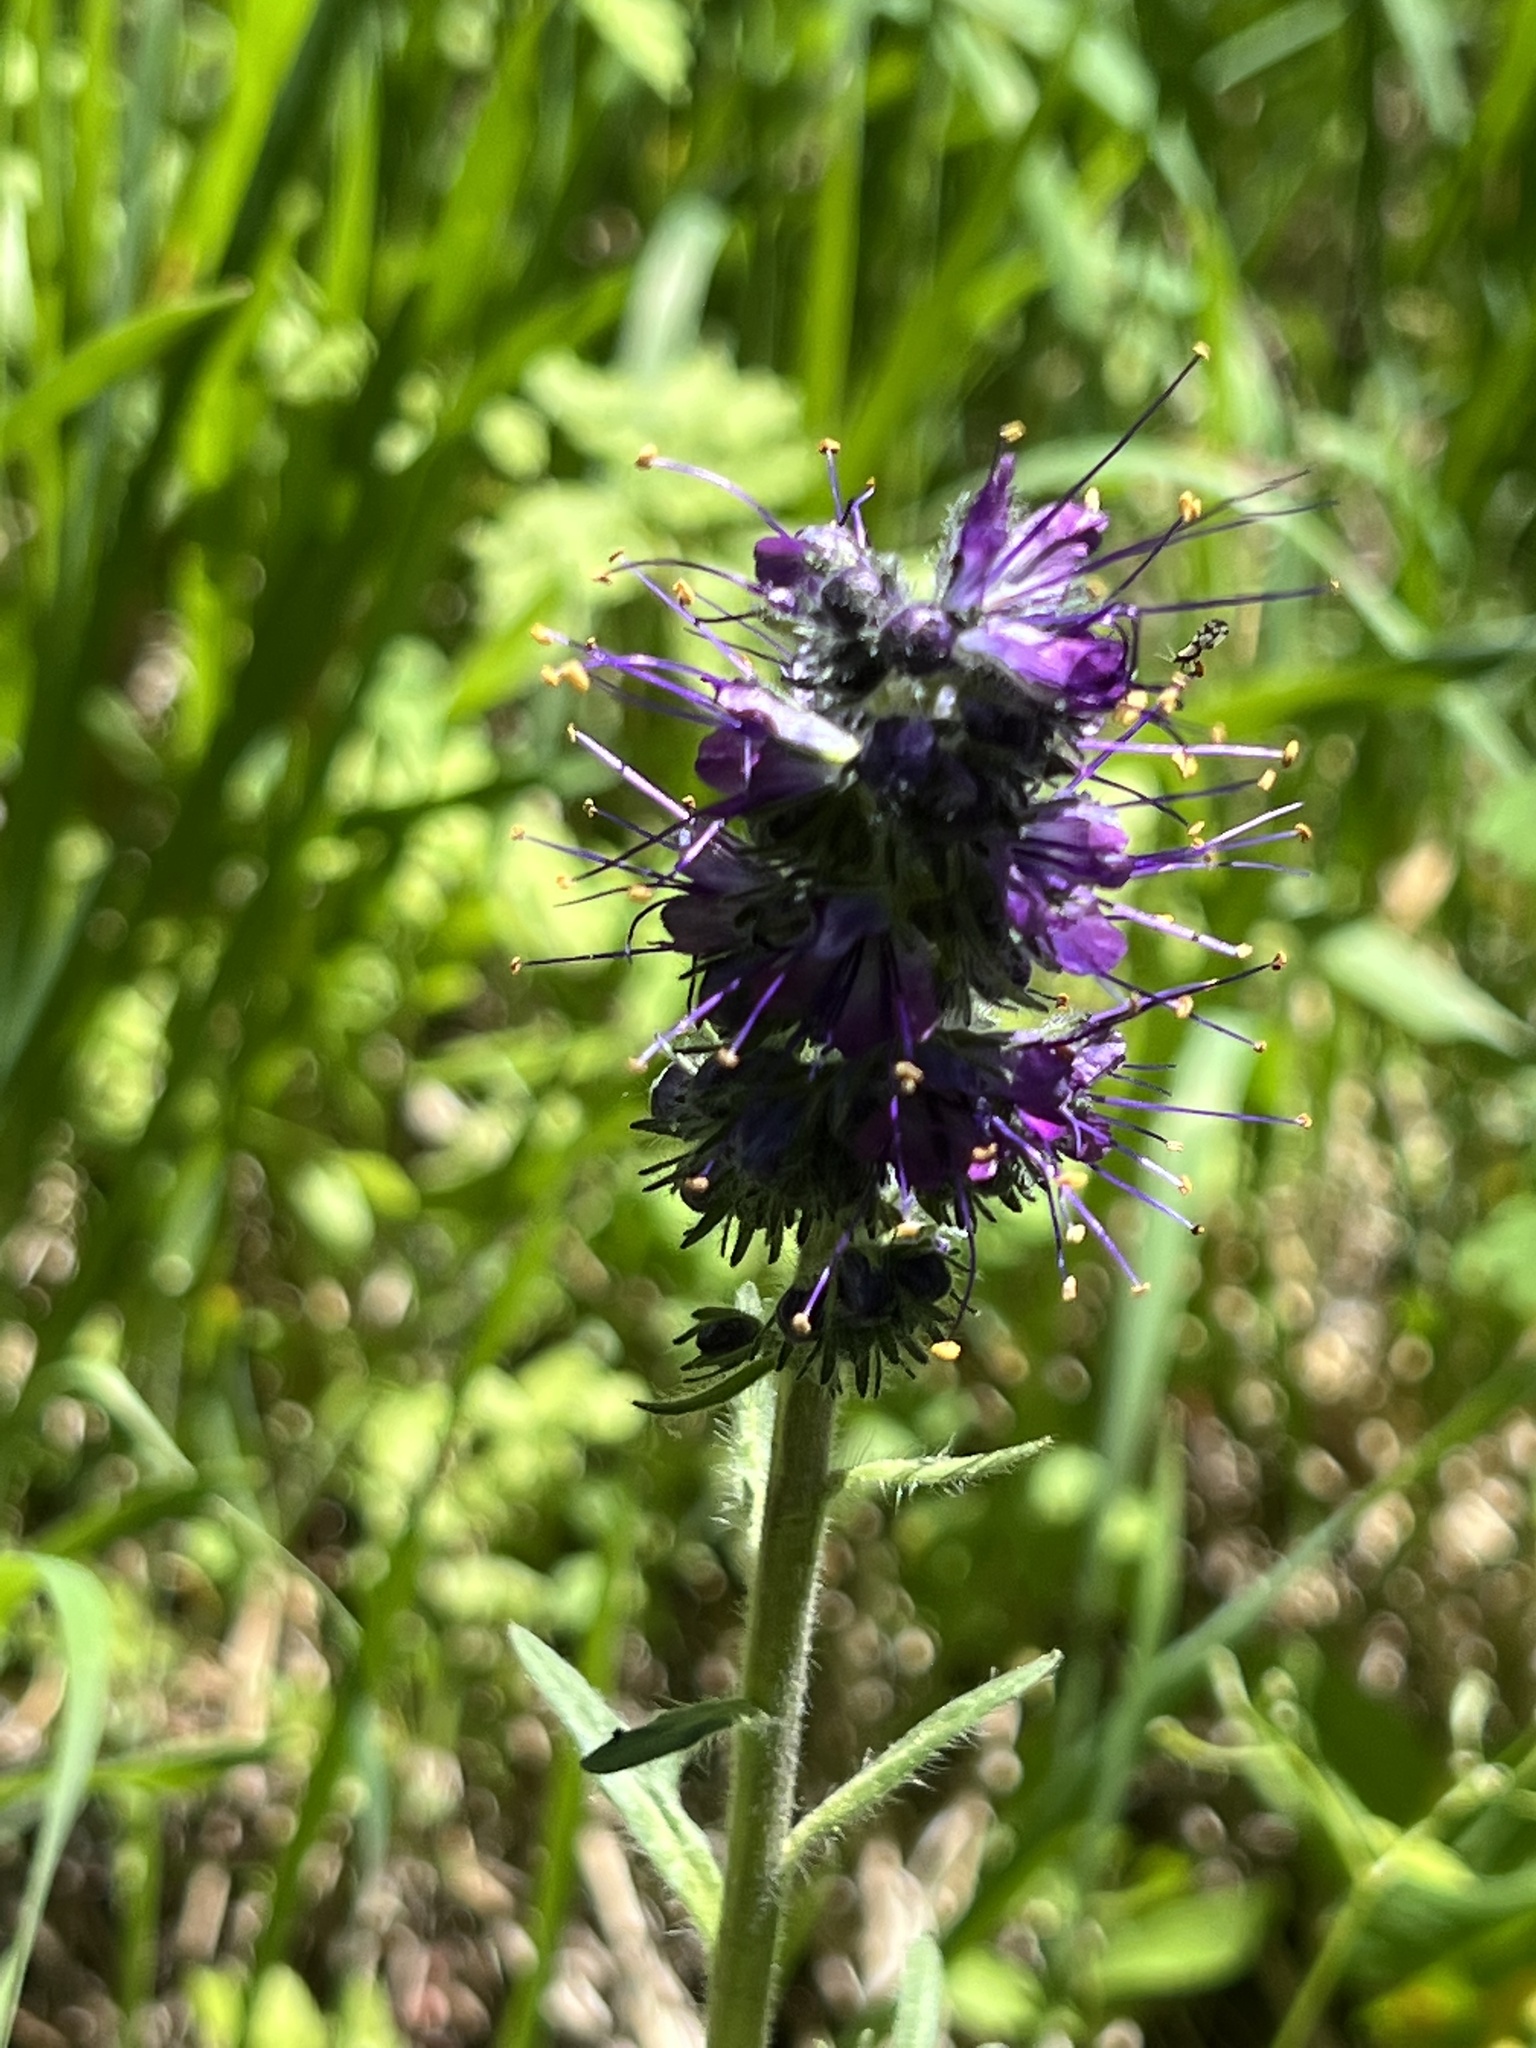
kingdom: Plantae
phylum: Tracheophyta
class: Magnoliopsida
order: Boraginales
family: Hydrophyllaceae
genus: Phacelia
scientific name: Phacelia sericea
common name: Silky phacelia
